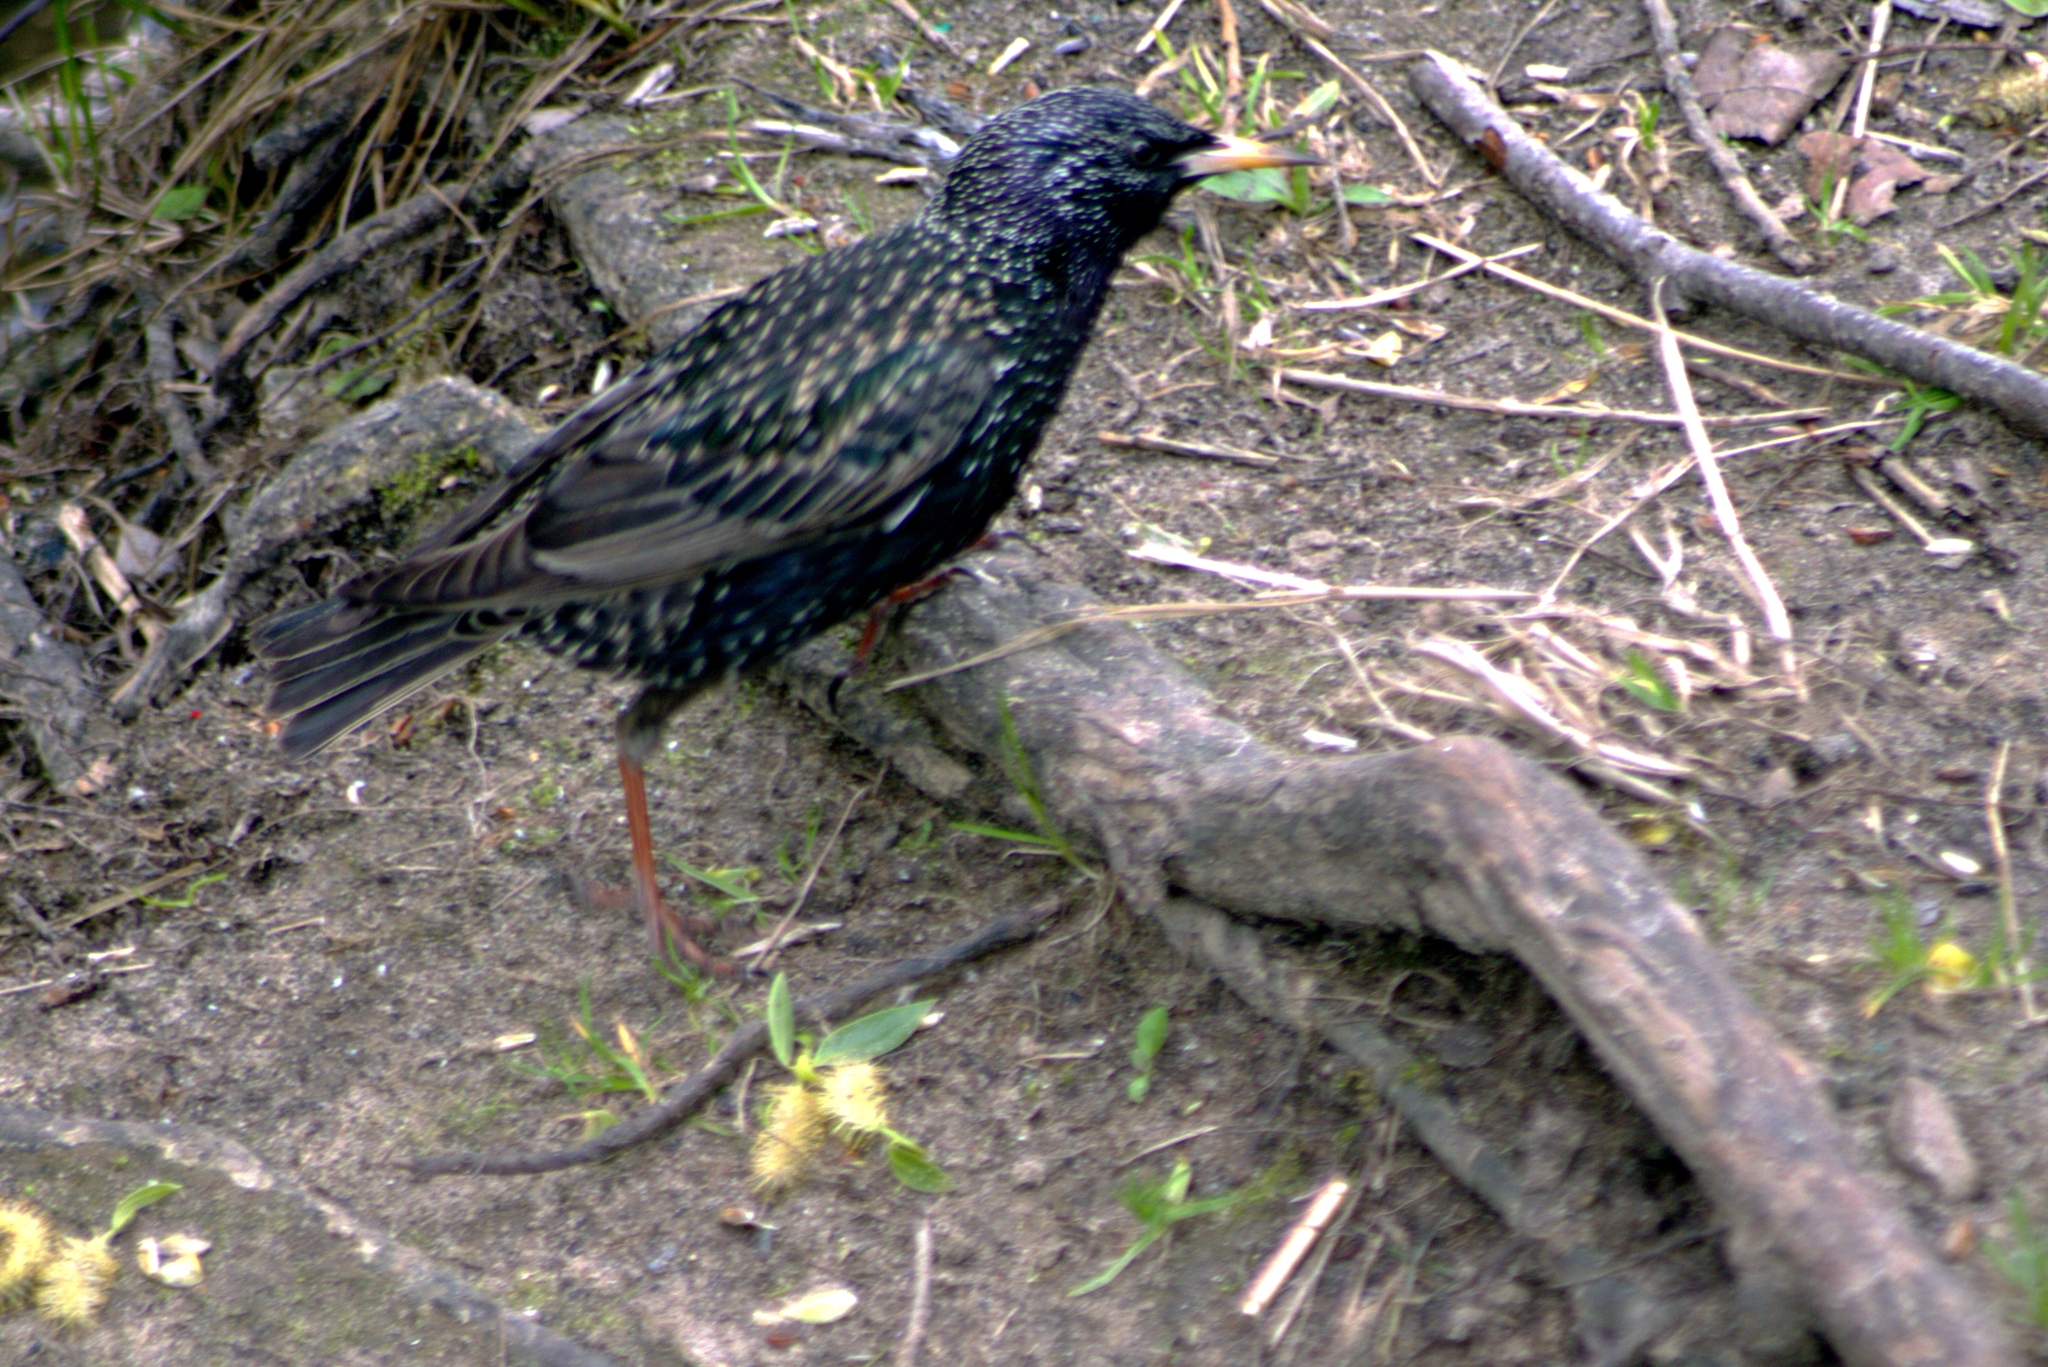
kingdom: Animalia
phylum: Chordata
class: Aves
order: Passeriformes
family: Sturnidae
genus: Sturnus
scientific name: Sturnus vulgaris
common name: Common starling
